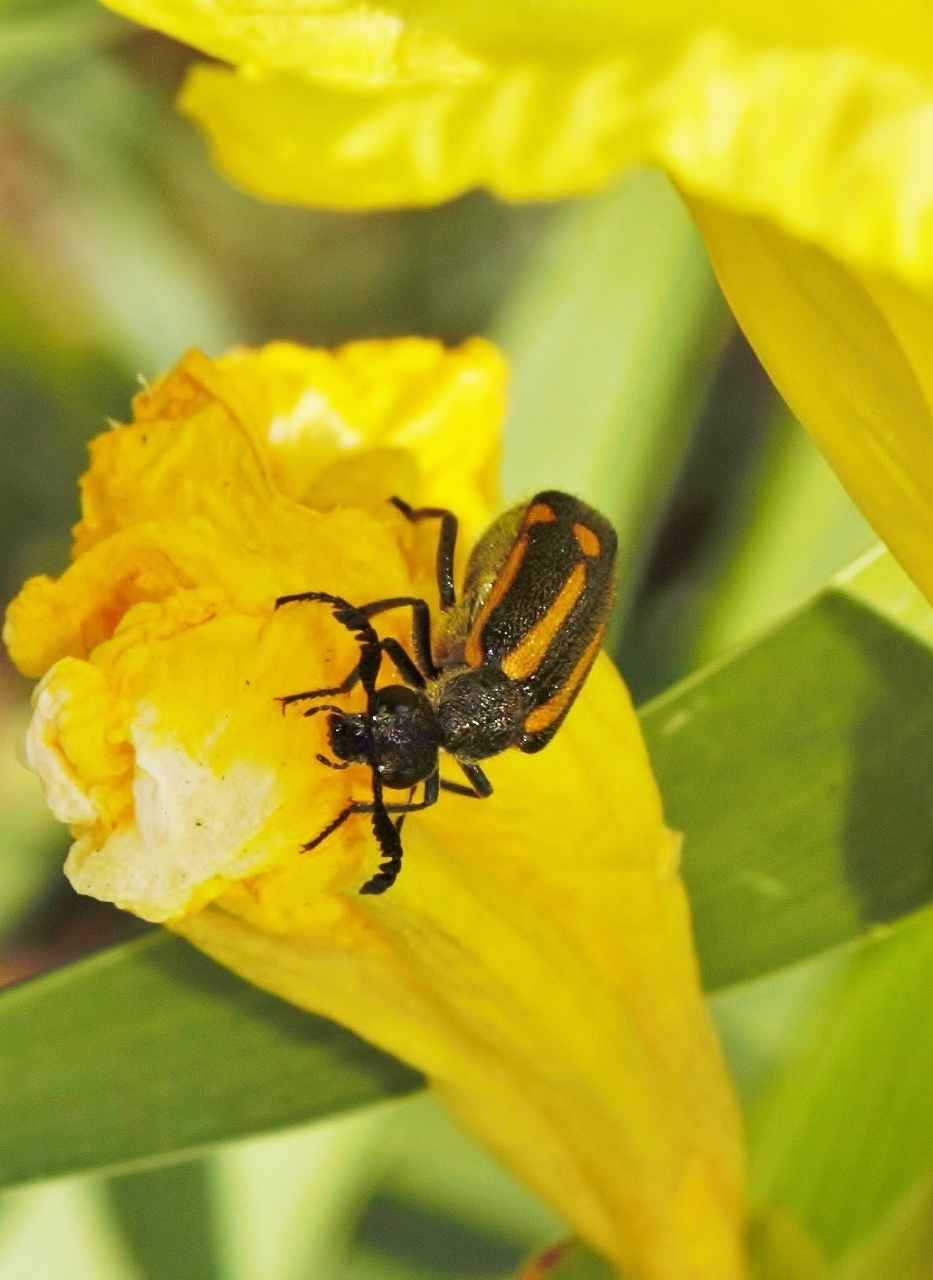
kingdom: Animalia
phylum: Arthropoda
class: Insecta
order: Coleoptera
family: Meloidae
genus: Ceroctis
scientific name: Ceroctis
